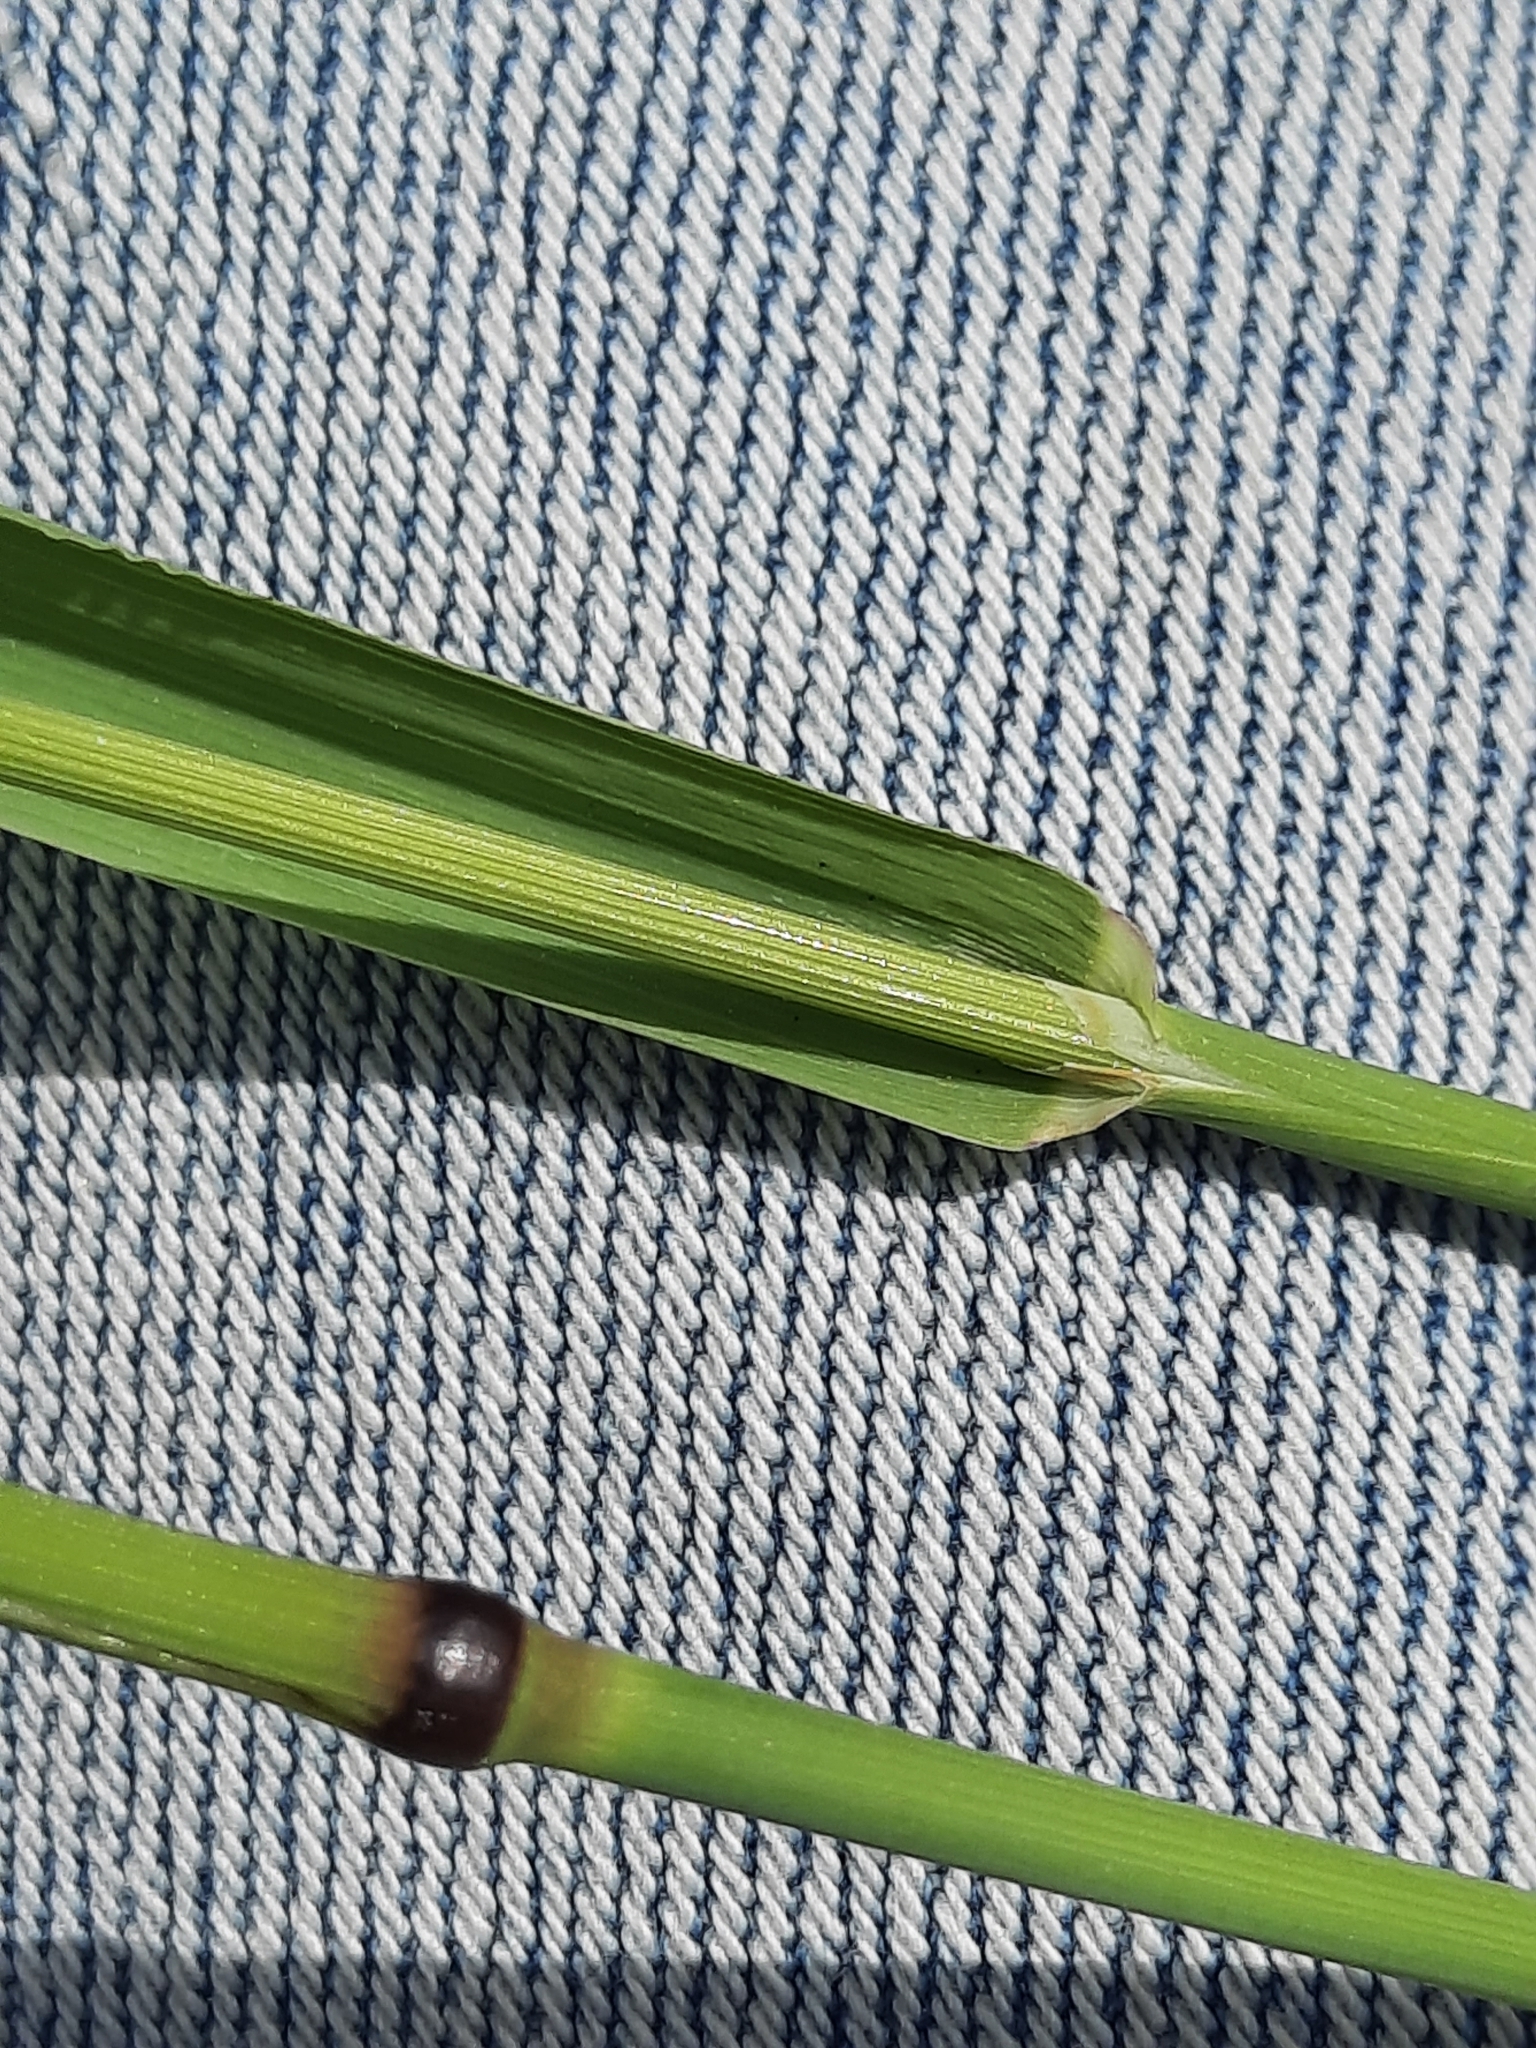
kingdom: Plantae
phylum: Tracheophyta
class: Liliopsida
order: Poales
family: Poaceae
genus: Phleum
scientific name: Phleum pratense
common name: Timothy grass
